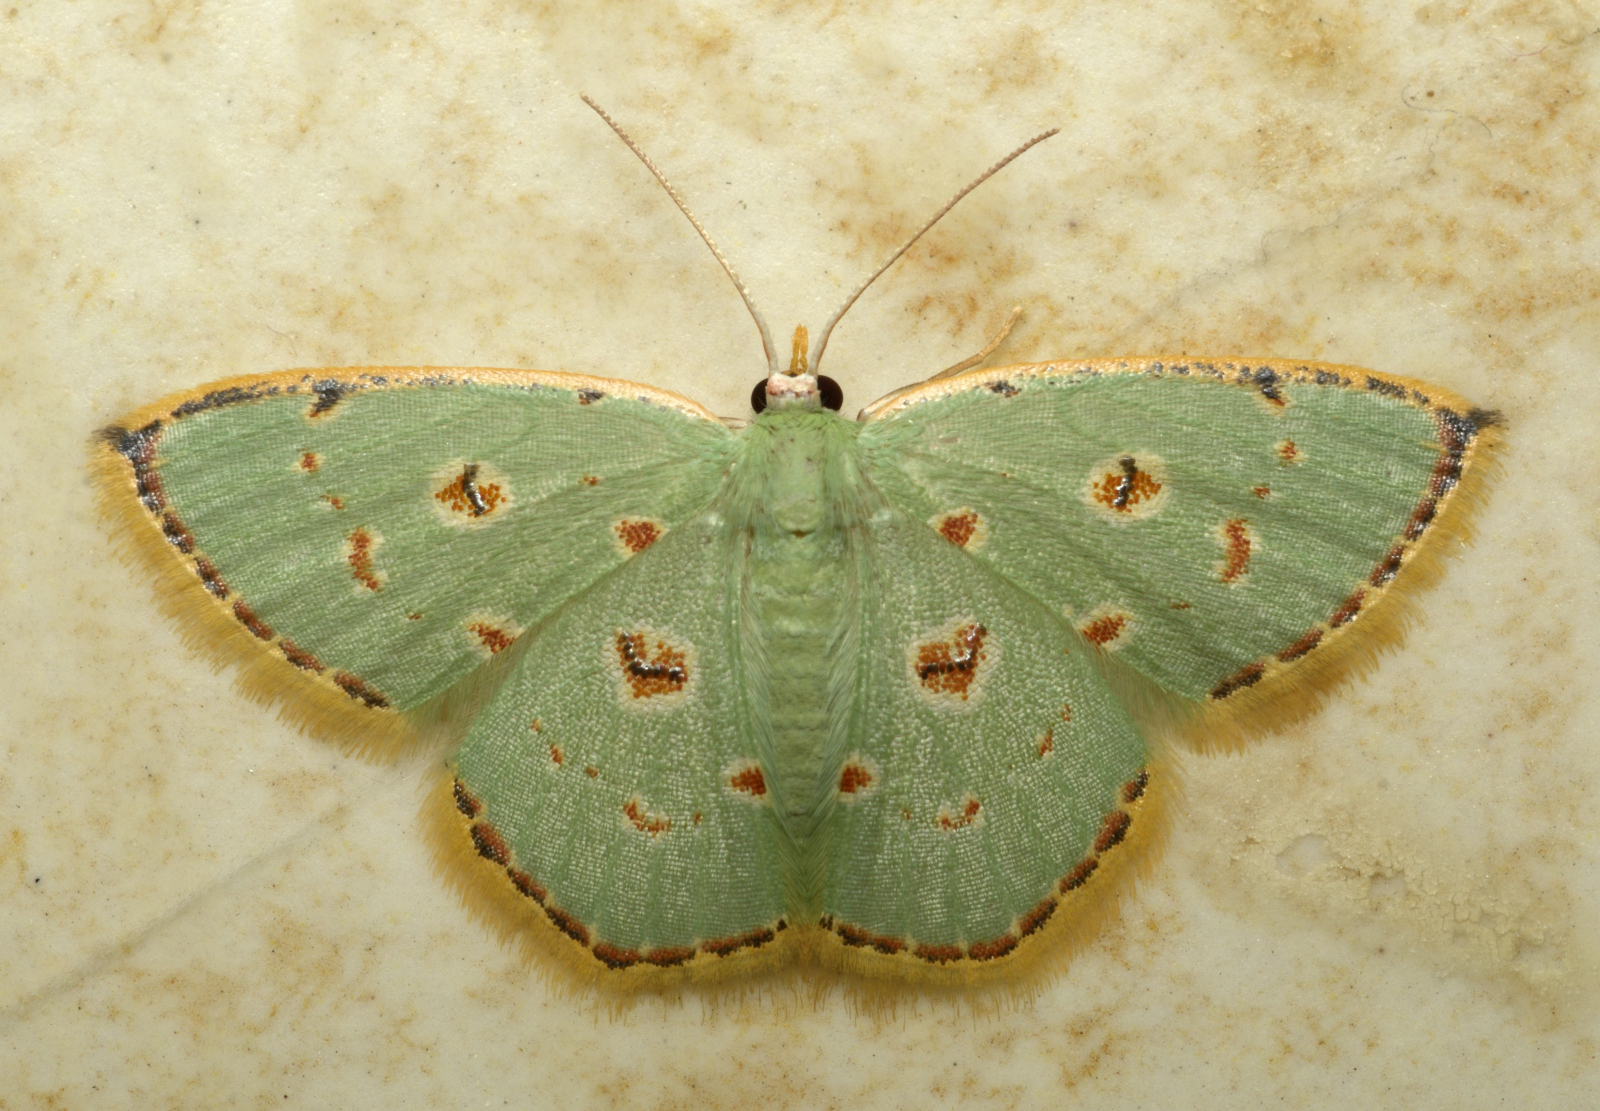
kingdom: Animalia
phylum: Arthropoda
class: Insecta
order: Lepidoptera
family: Geometridae
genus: Comostola
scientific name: Comostola laesaria
